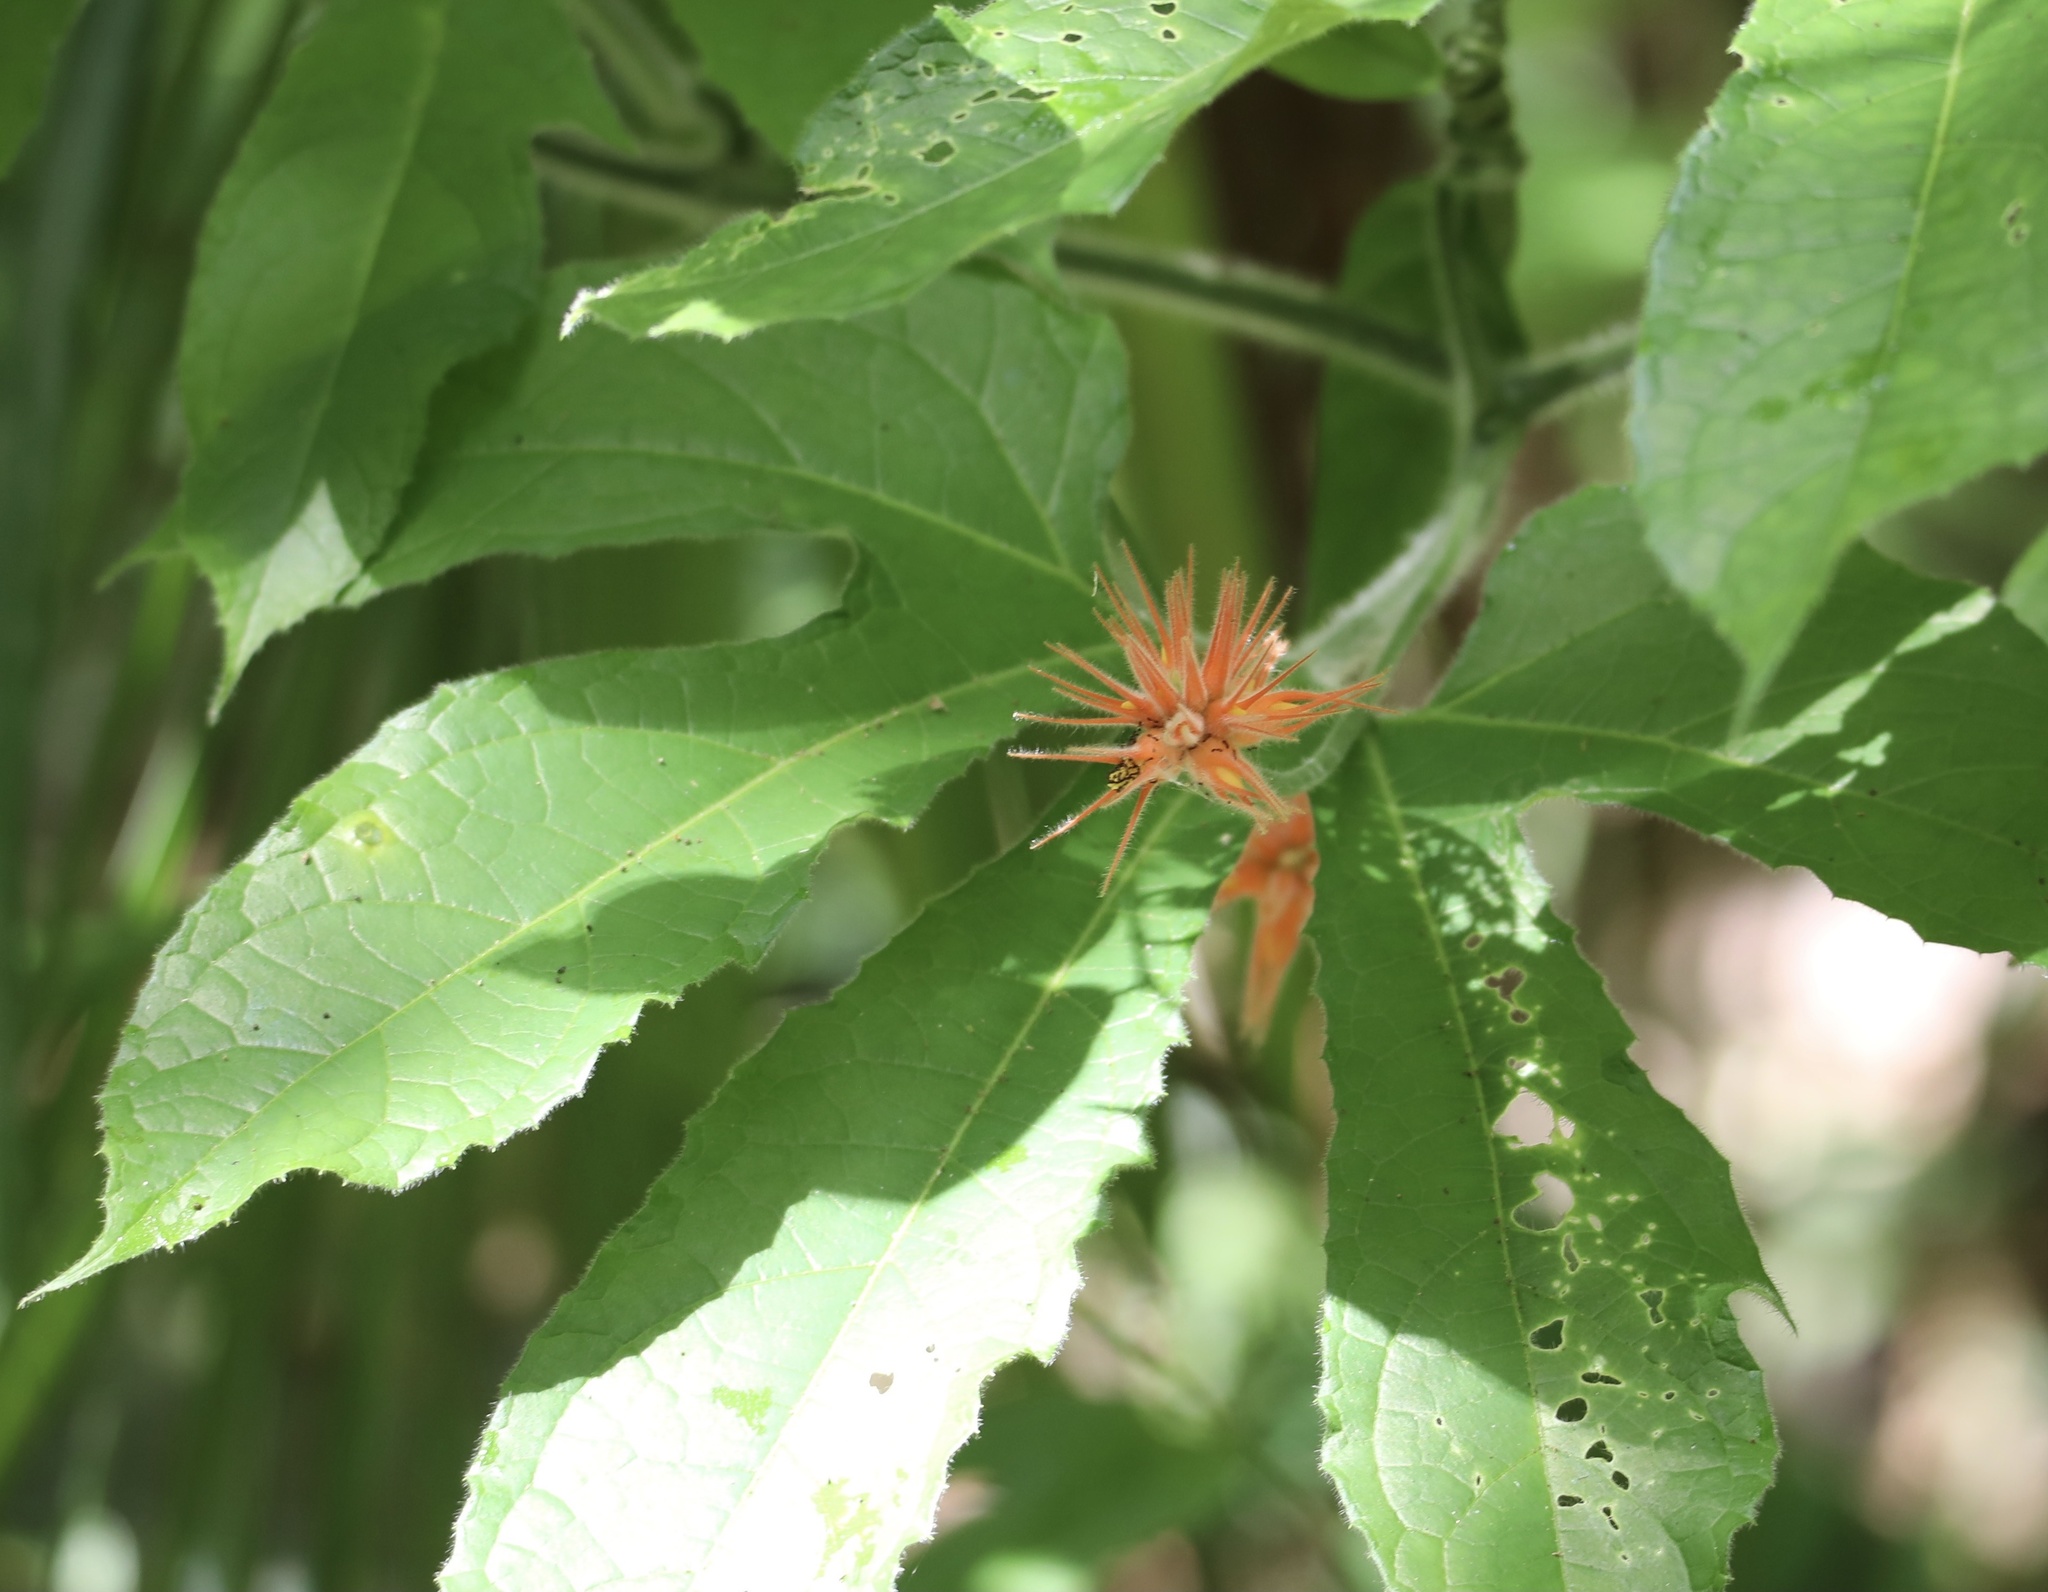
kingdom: Plantae
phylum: Tracheophyta
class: Magnoliopsida
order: Cucurbitales
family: Cucurbitaceae
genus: Gurania
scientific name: Gurania makoyana
